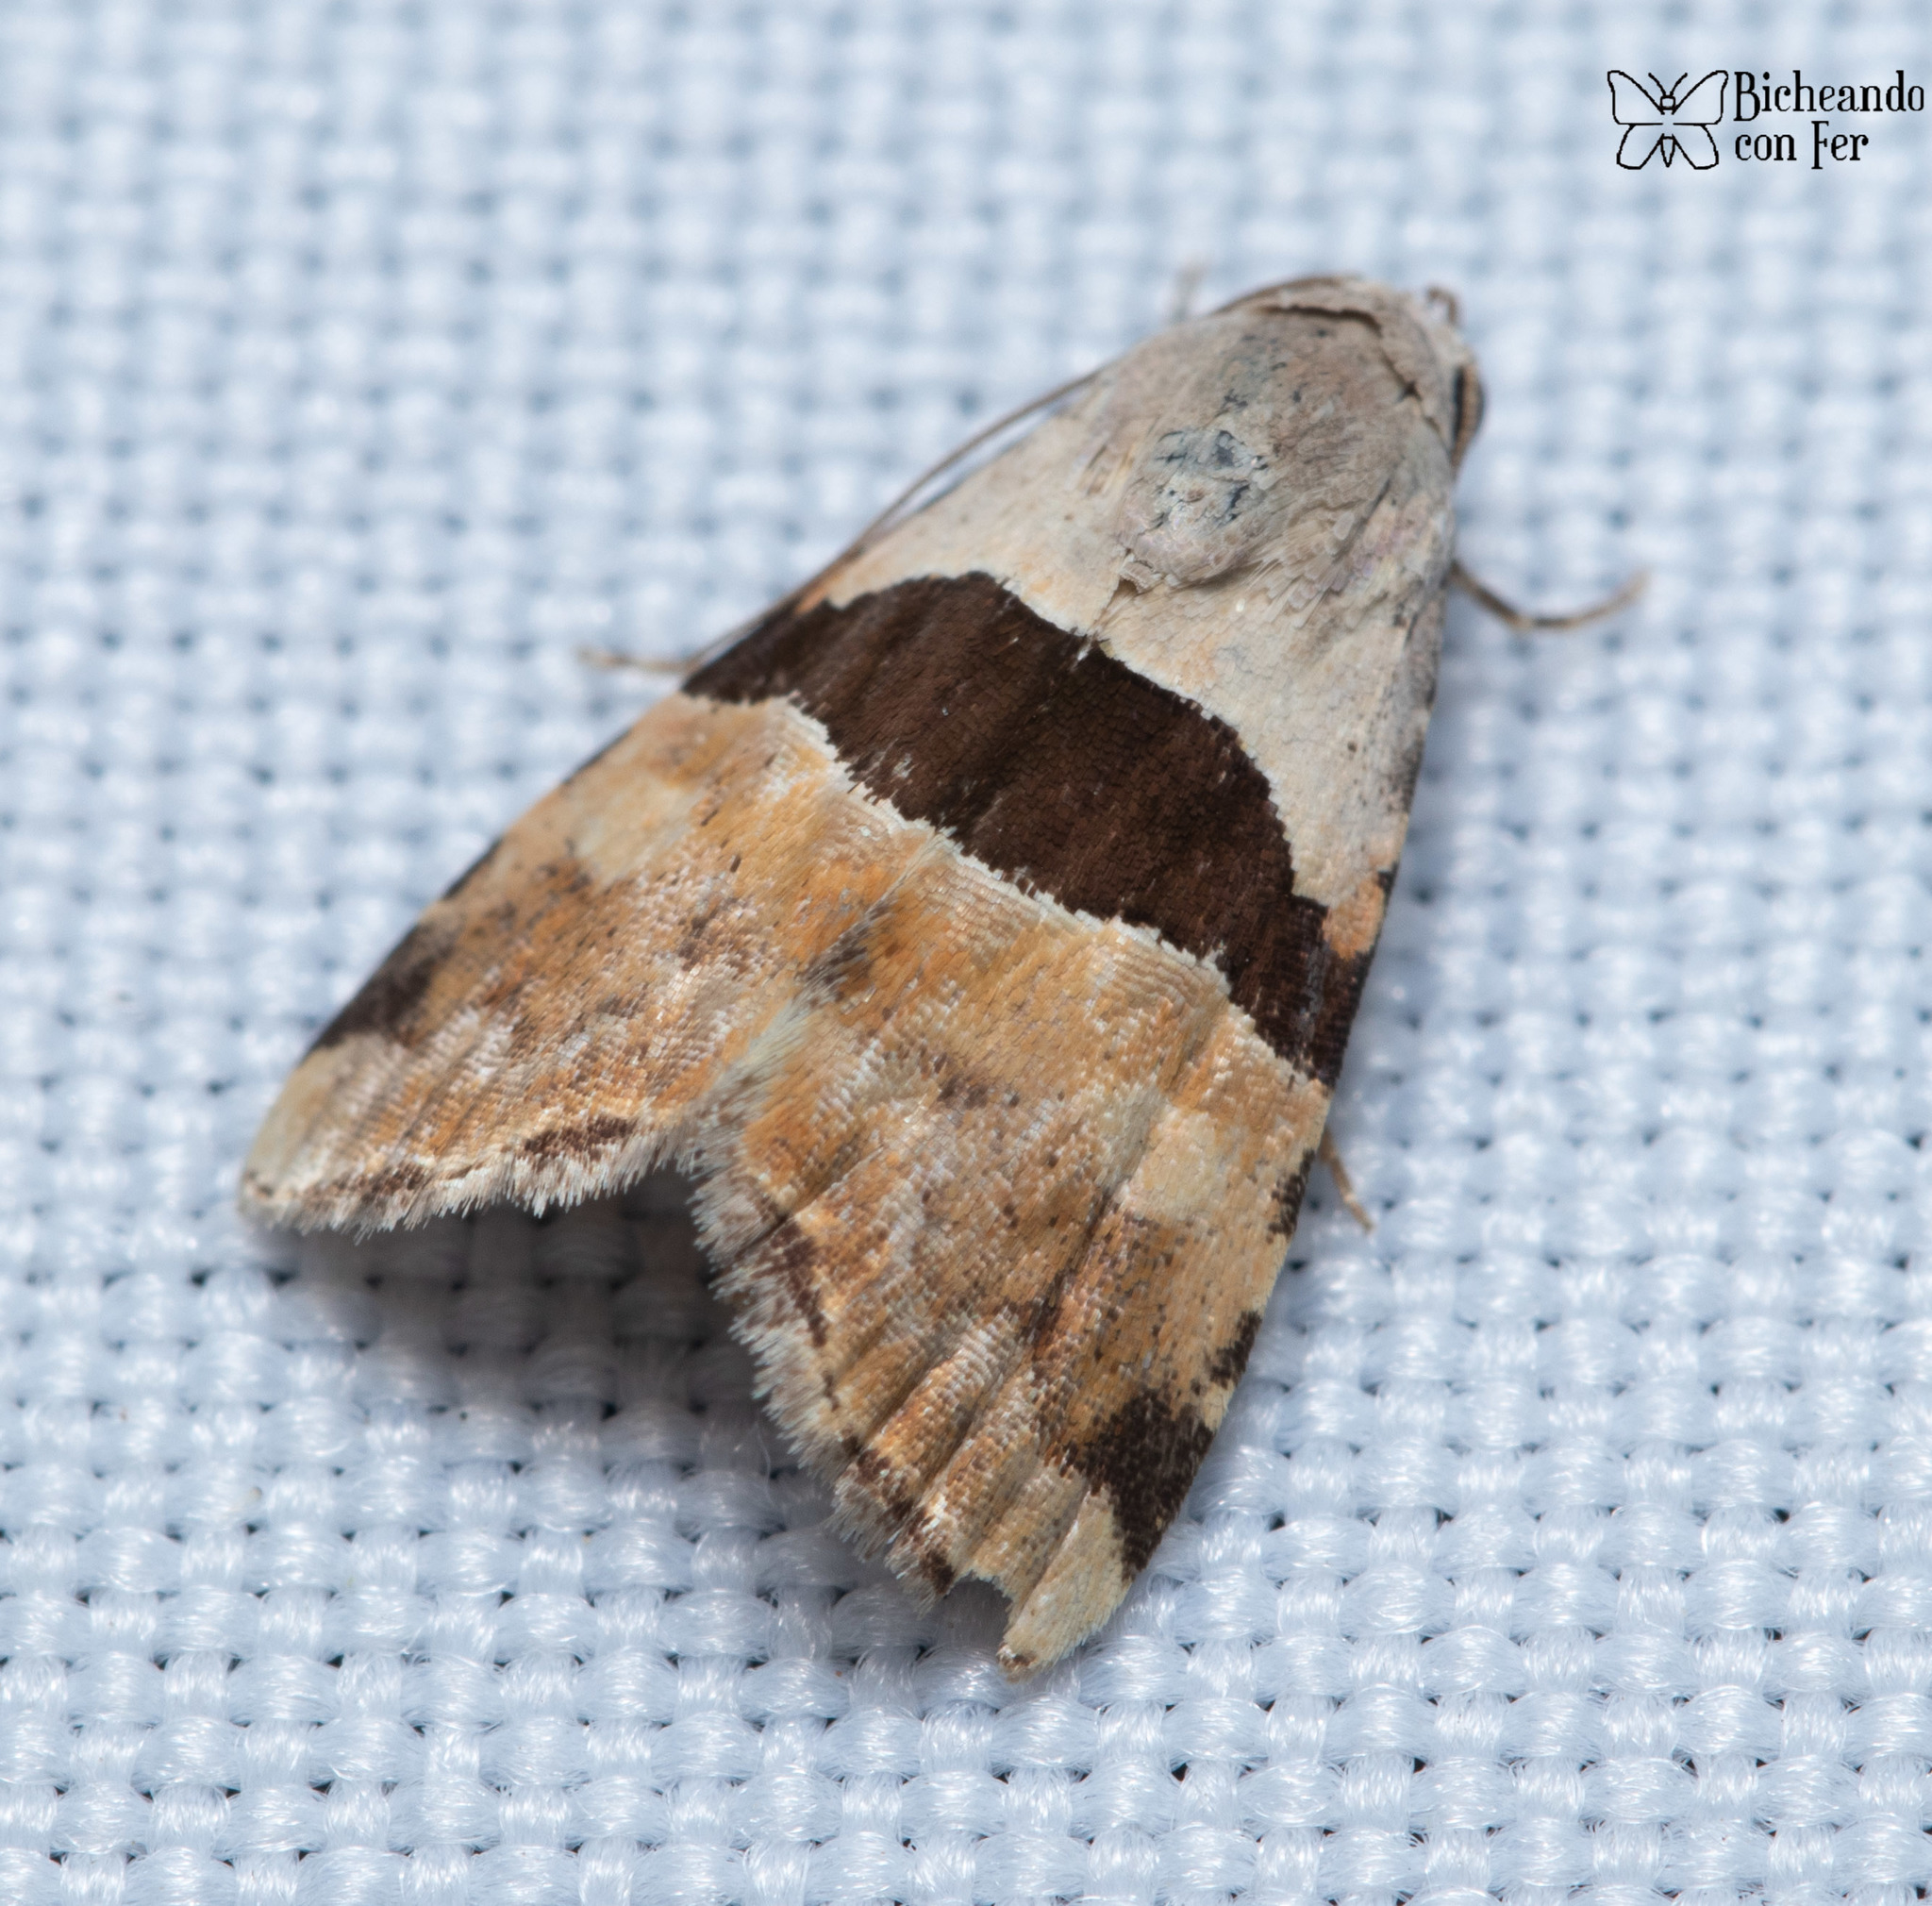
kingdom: Animalia
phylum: Arthropoda
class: Insecta
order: Lepidoptera
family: Noctuidae
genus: Cobubatha
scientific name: Cobubatha lixiva
